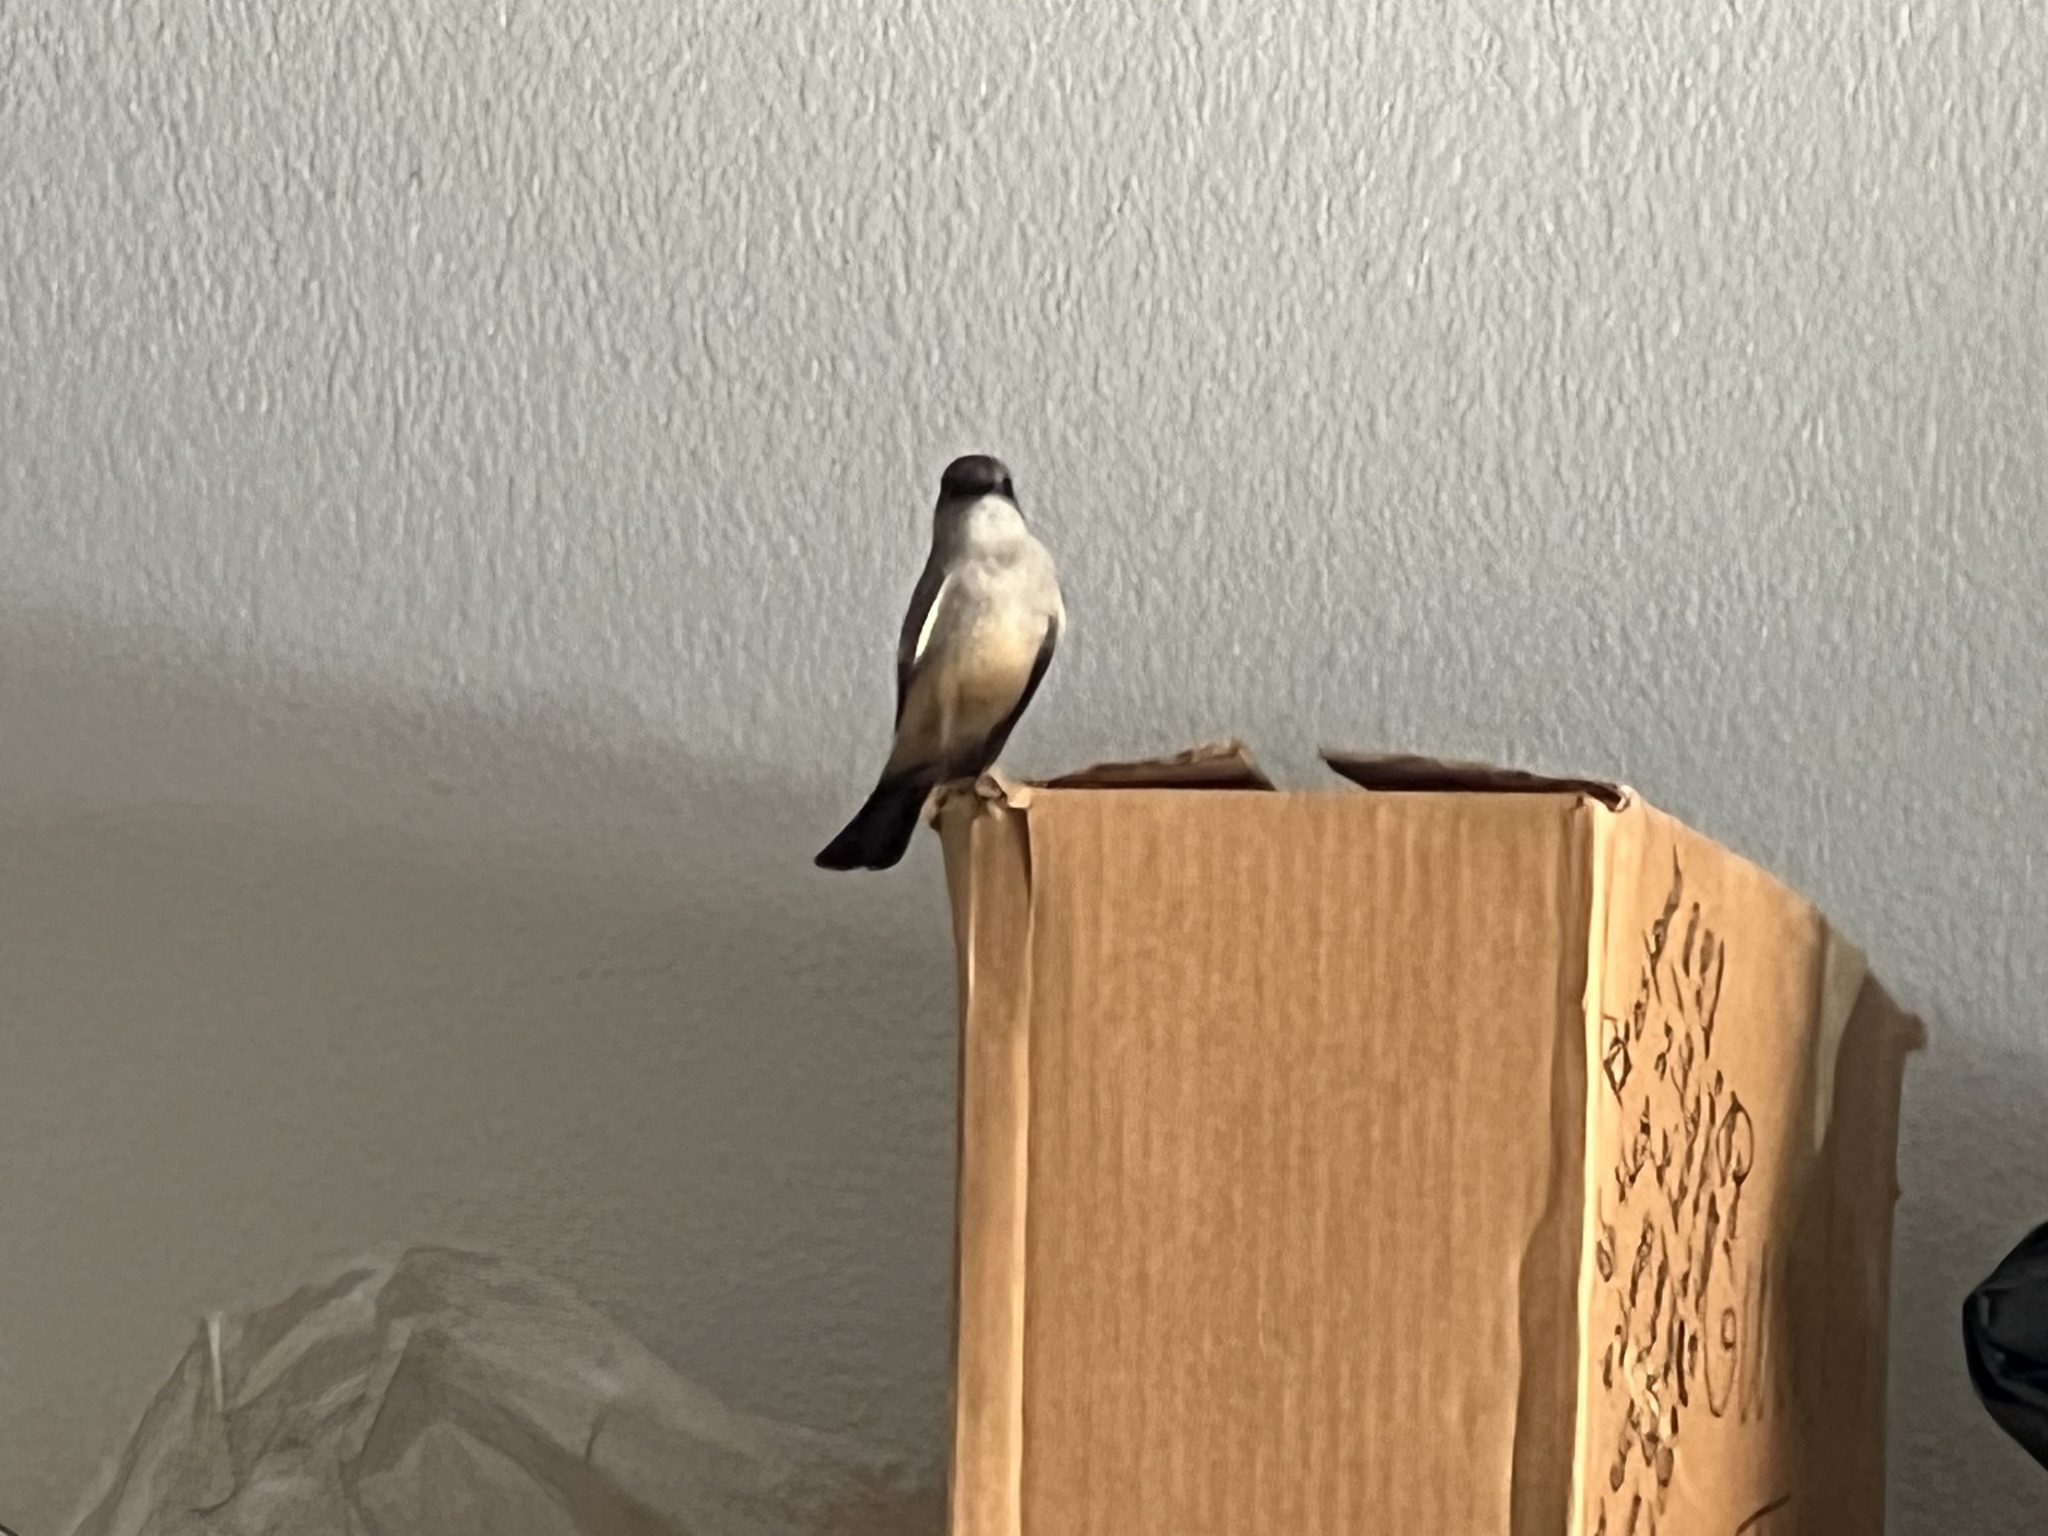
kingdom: Animalia
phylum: Chordata
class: Aves
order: Passeriformes
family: Tyrannidae
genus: Sayornis
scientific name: Sayornis saya
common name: Say's phoebe
